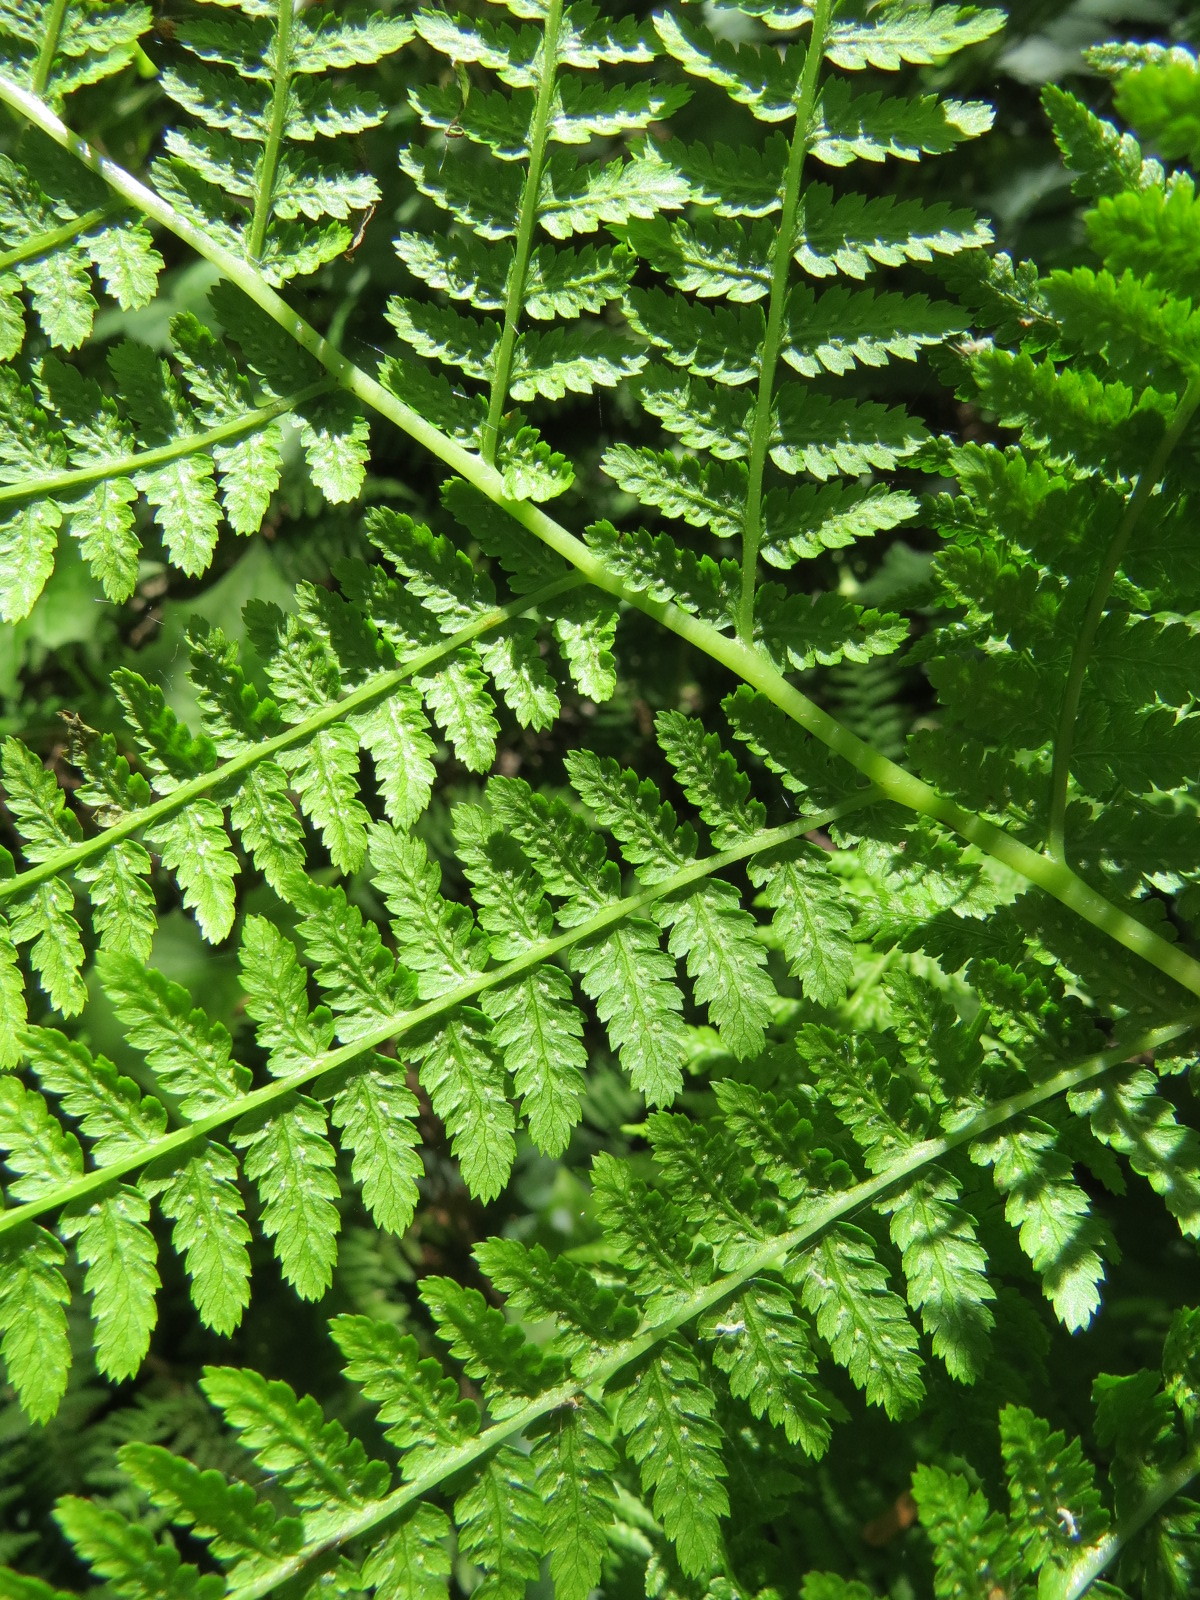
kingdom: Plantae
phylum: Tracheophyta
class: Polypodiopsida
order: Polypodiales
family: Athyriaceae
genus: Athyrium
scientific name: Athyrium filix-femina
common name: Lady fern
